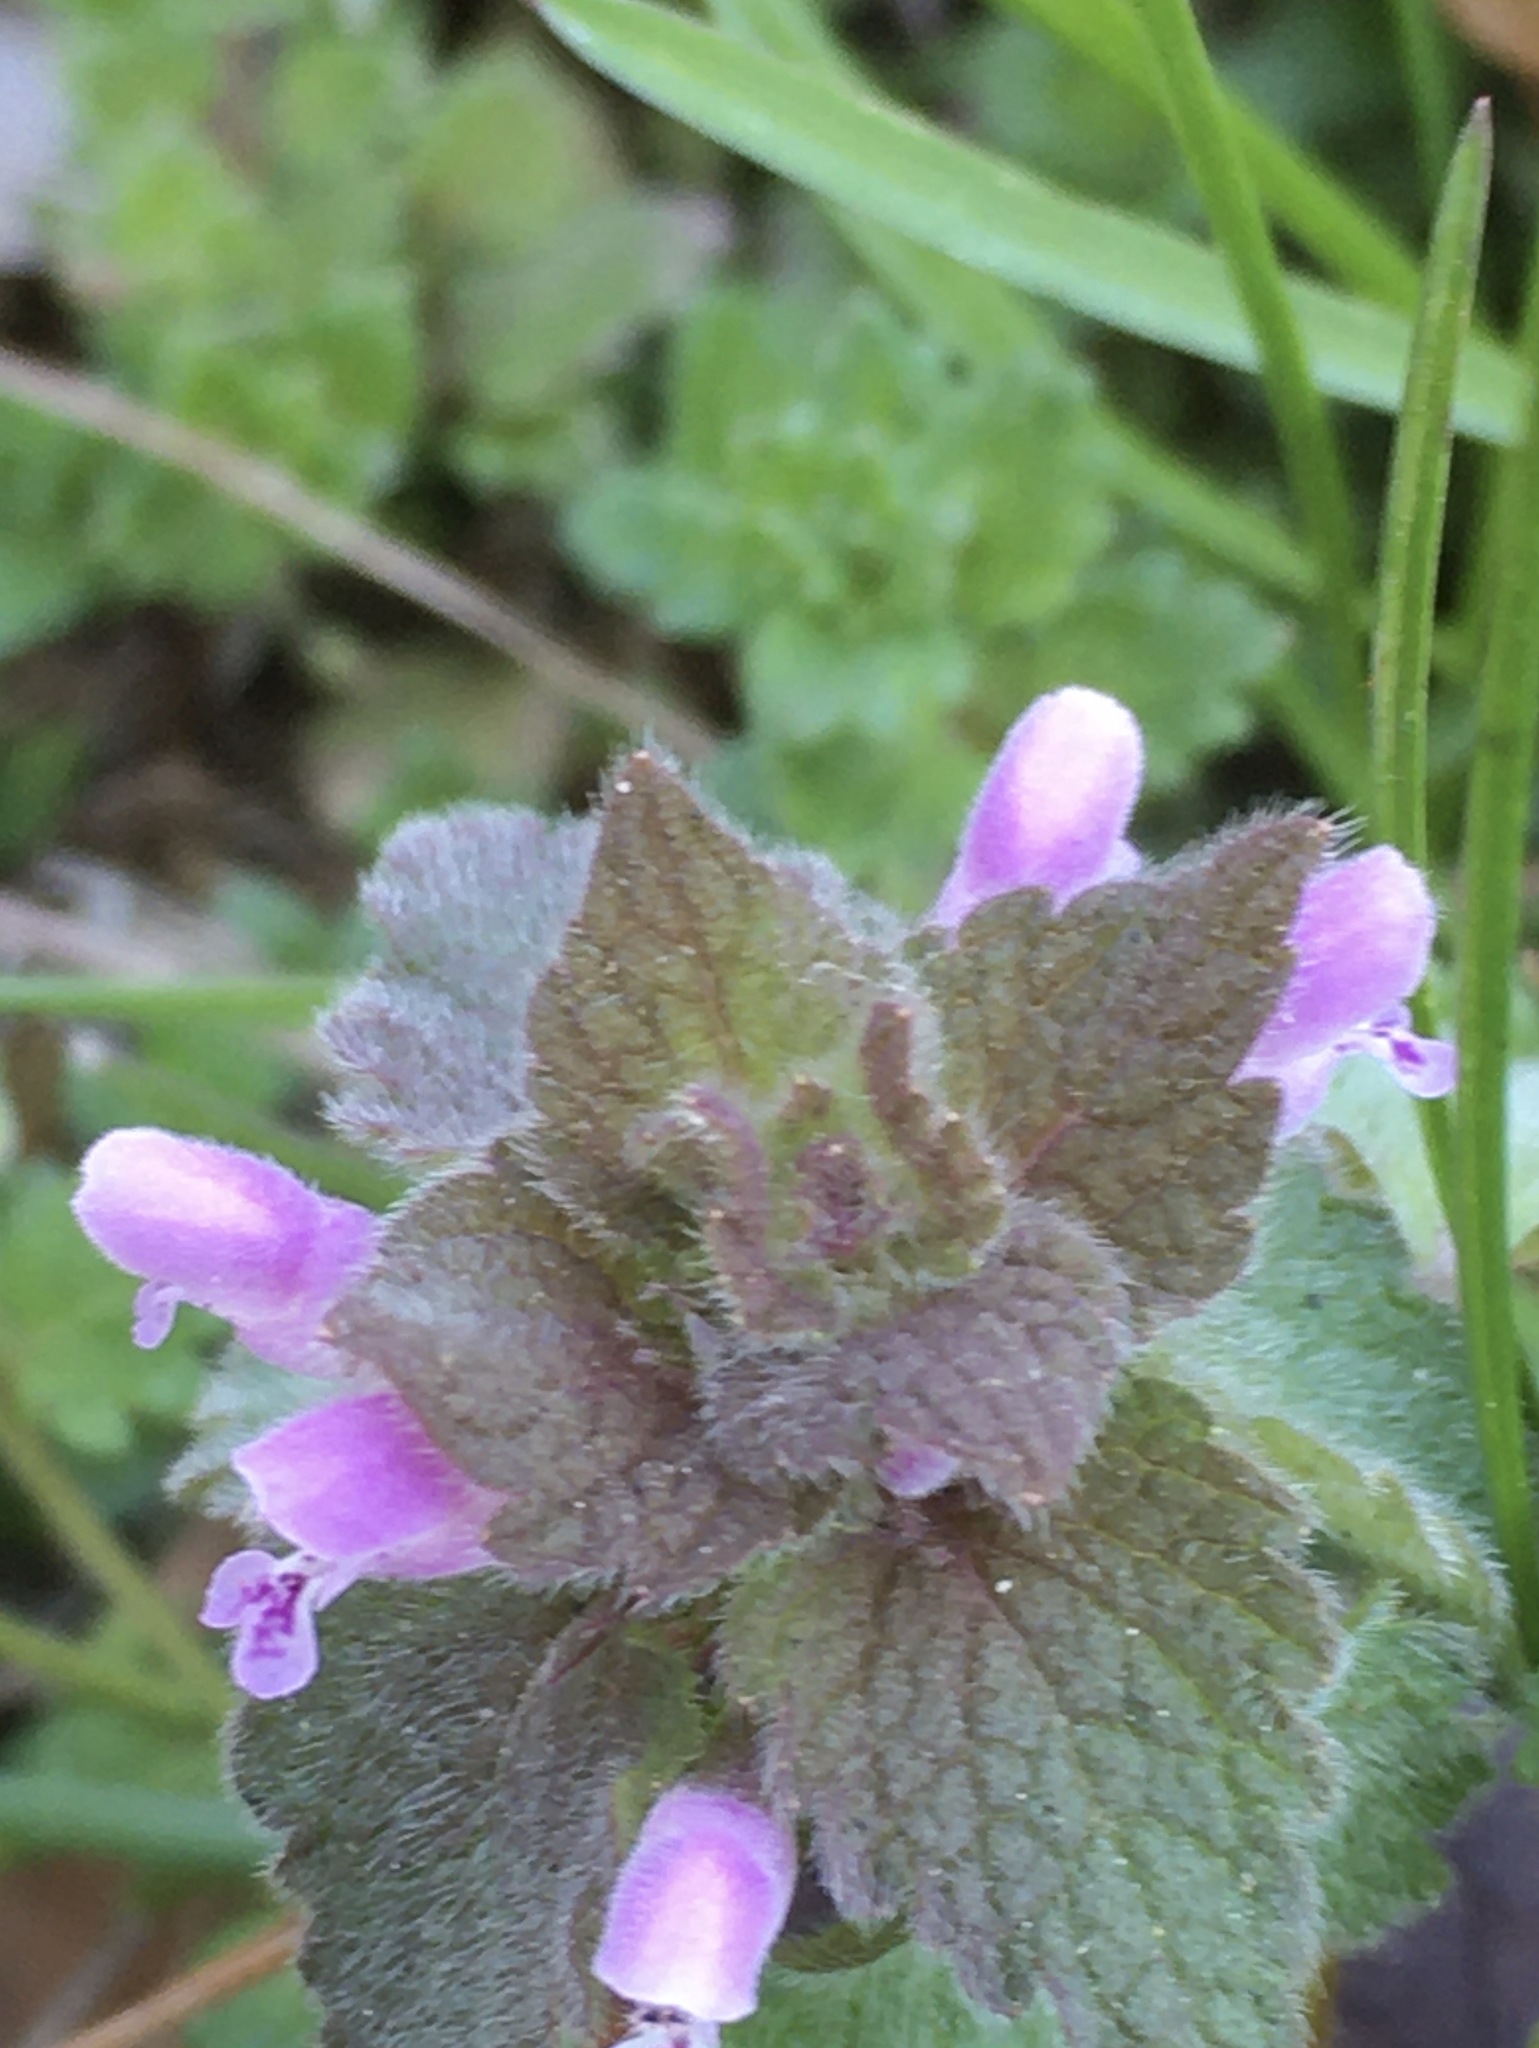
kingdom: Plantae
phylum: Tracheophyta
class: Magnoliopsida
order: Lamiales
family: Lamiaceae
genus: Lamium
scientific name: Lamium purpureum
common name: Red dead-nettle
